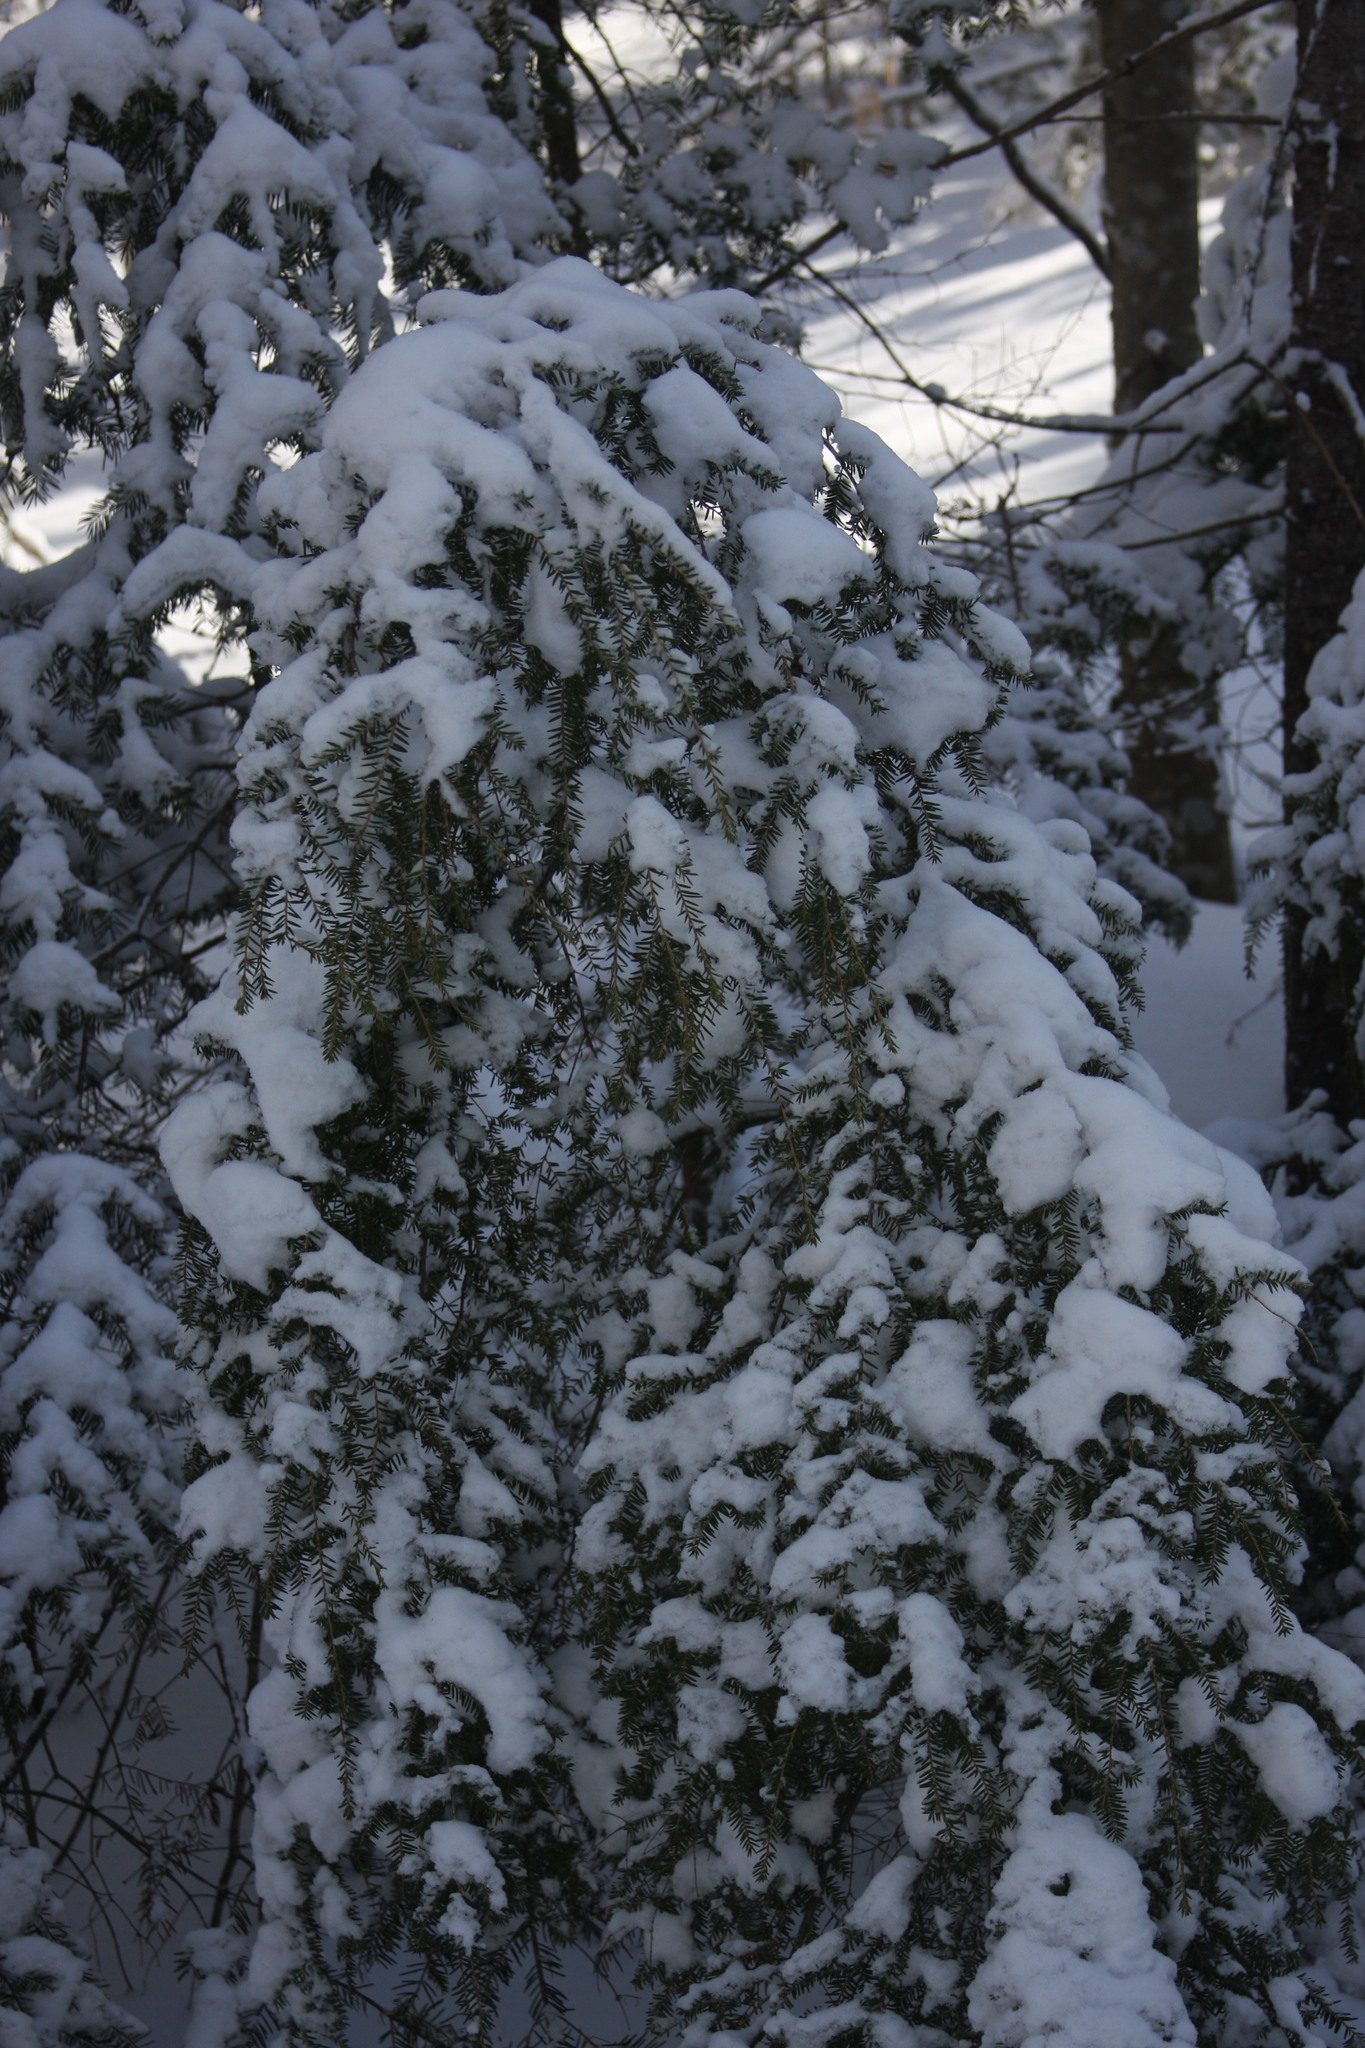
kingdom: Plantae
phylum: Tracheophyta
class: Pinopsida
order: Pinales
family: Pinaceae
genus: Tsuga
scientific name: Tsuga canadensis
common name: Eastern hemlock
